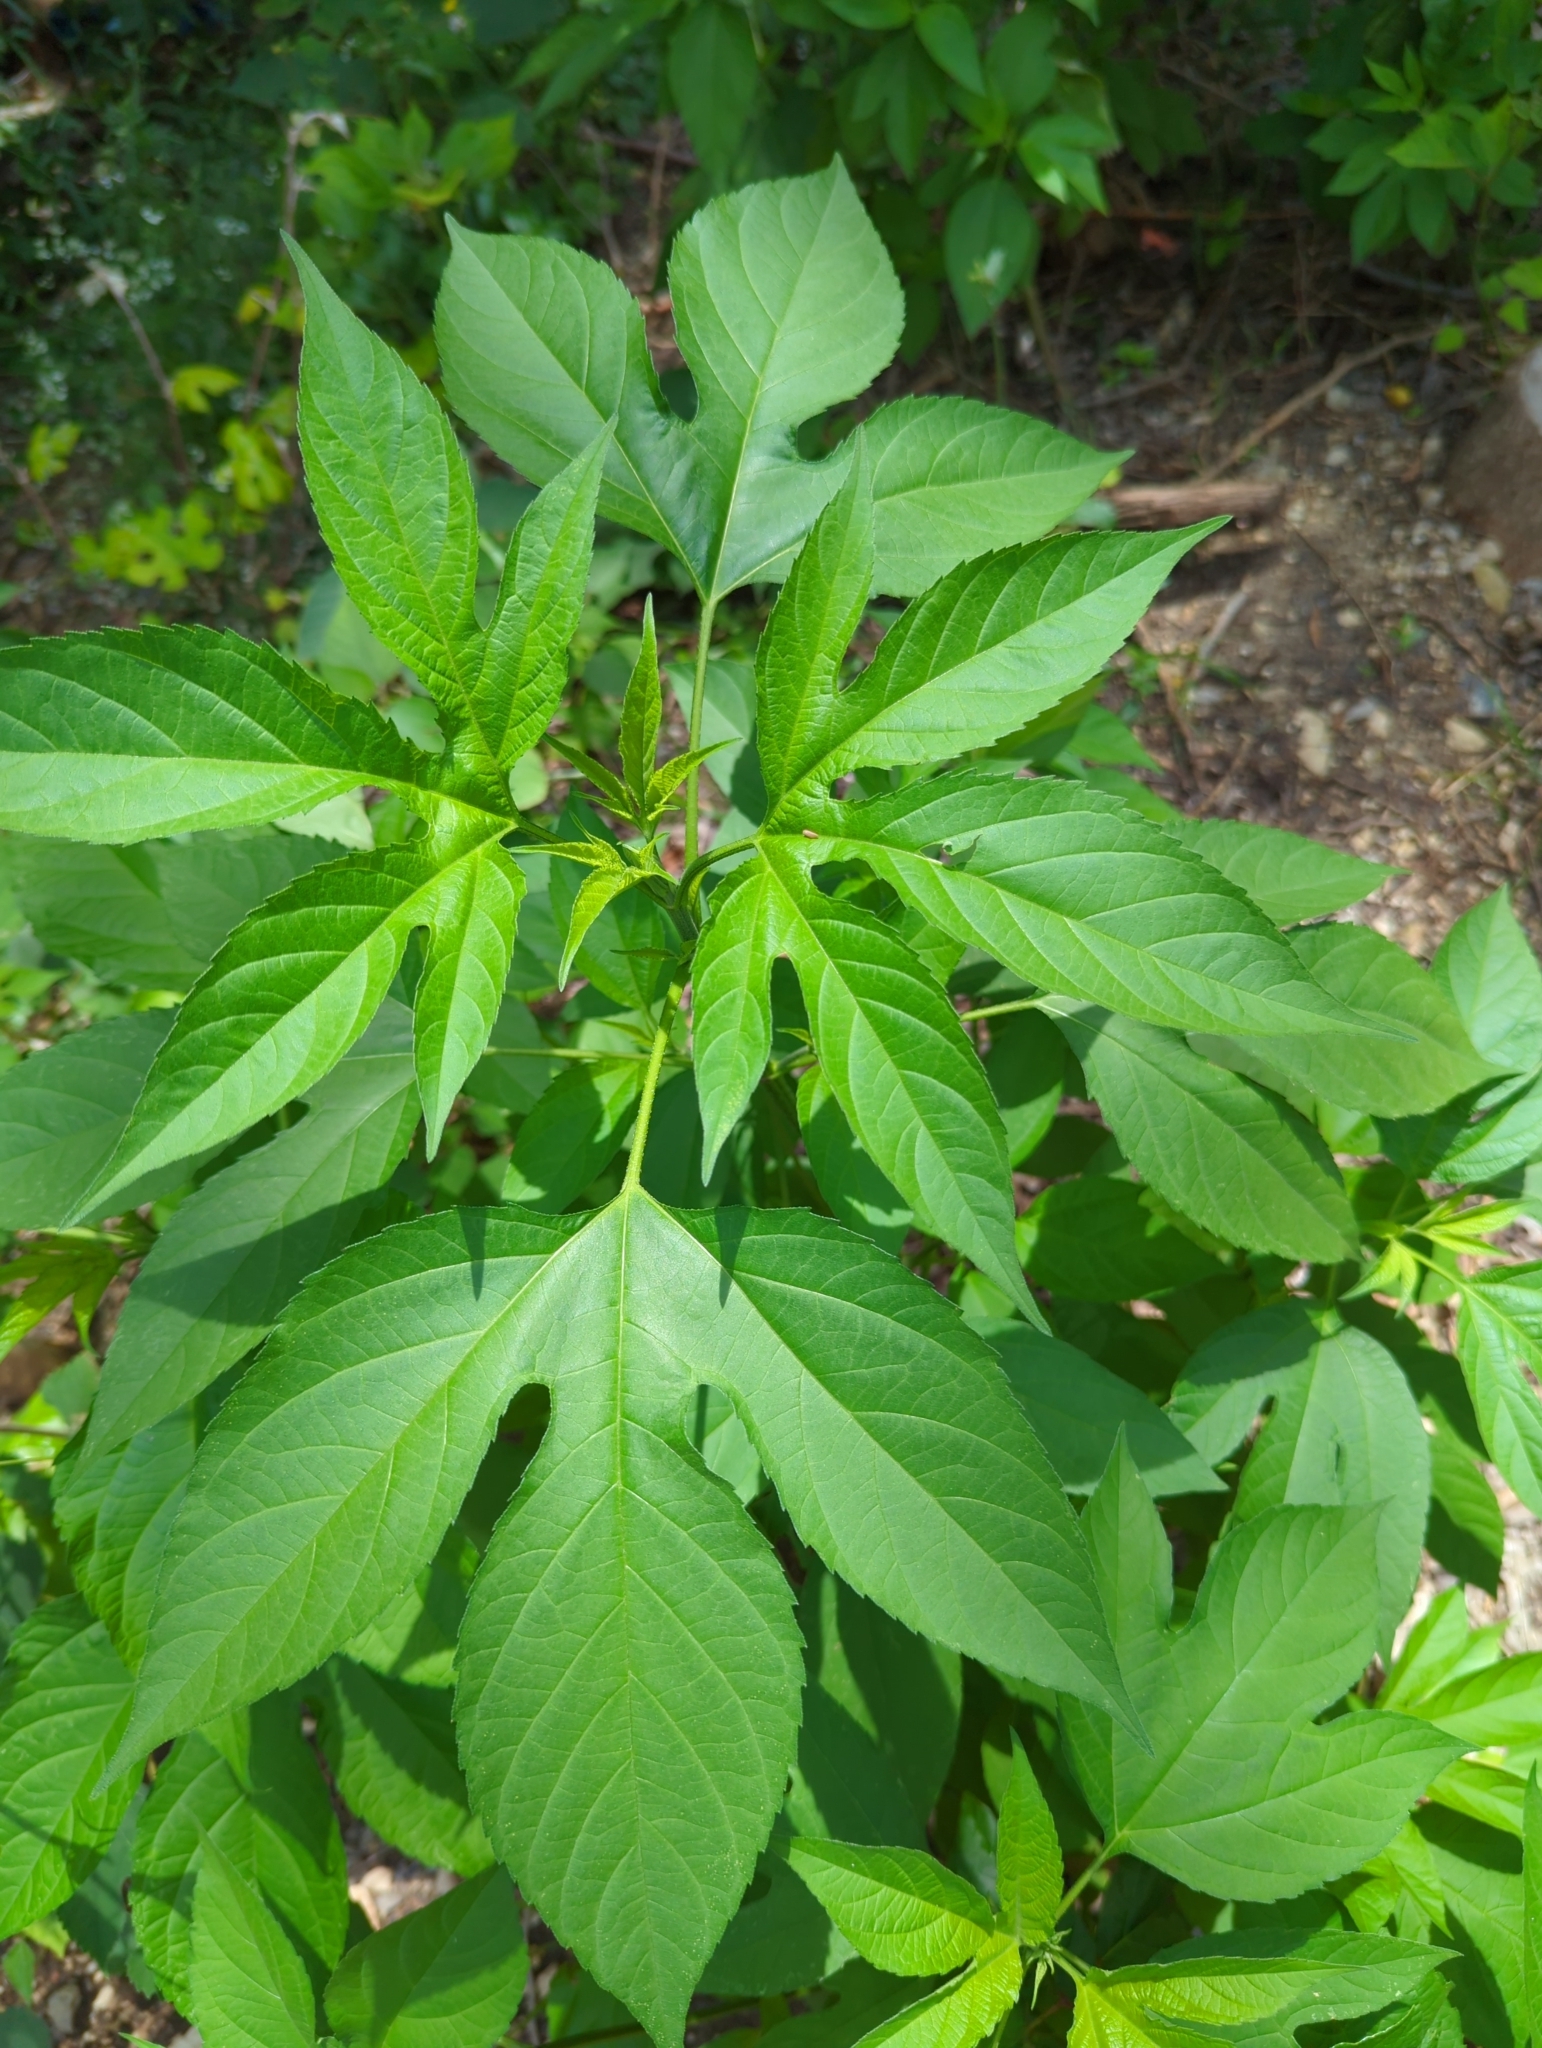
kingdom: Plantae
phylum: Tracheophyta
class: Magnoliopsida
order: Asterales
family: Asteraceae
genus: Ambrosia
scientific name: Ambrosia trifida
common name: Giant ragweed
